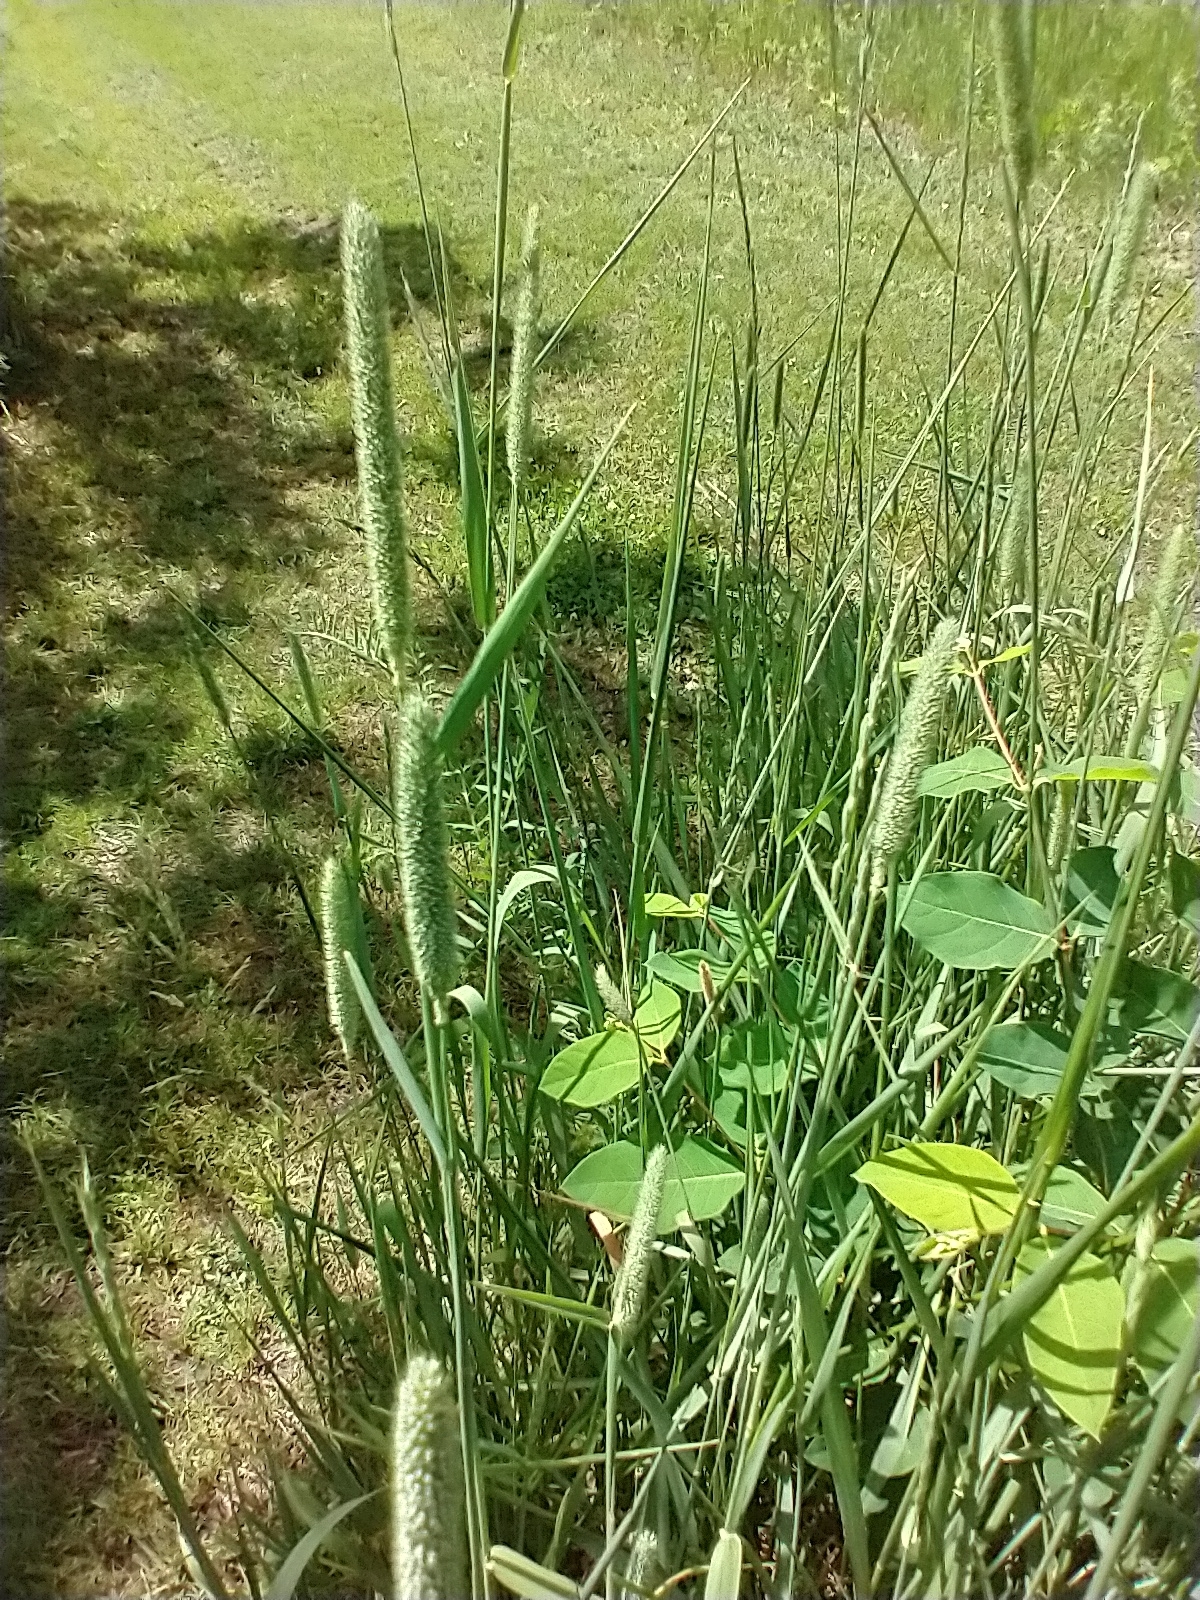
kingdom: Plantae
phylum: Tracheophyta
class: Liliopsida
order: Poales
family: Poaceae
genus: Phleum
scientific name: Phleum pratense
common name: Timothy grass
